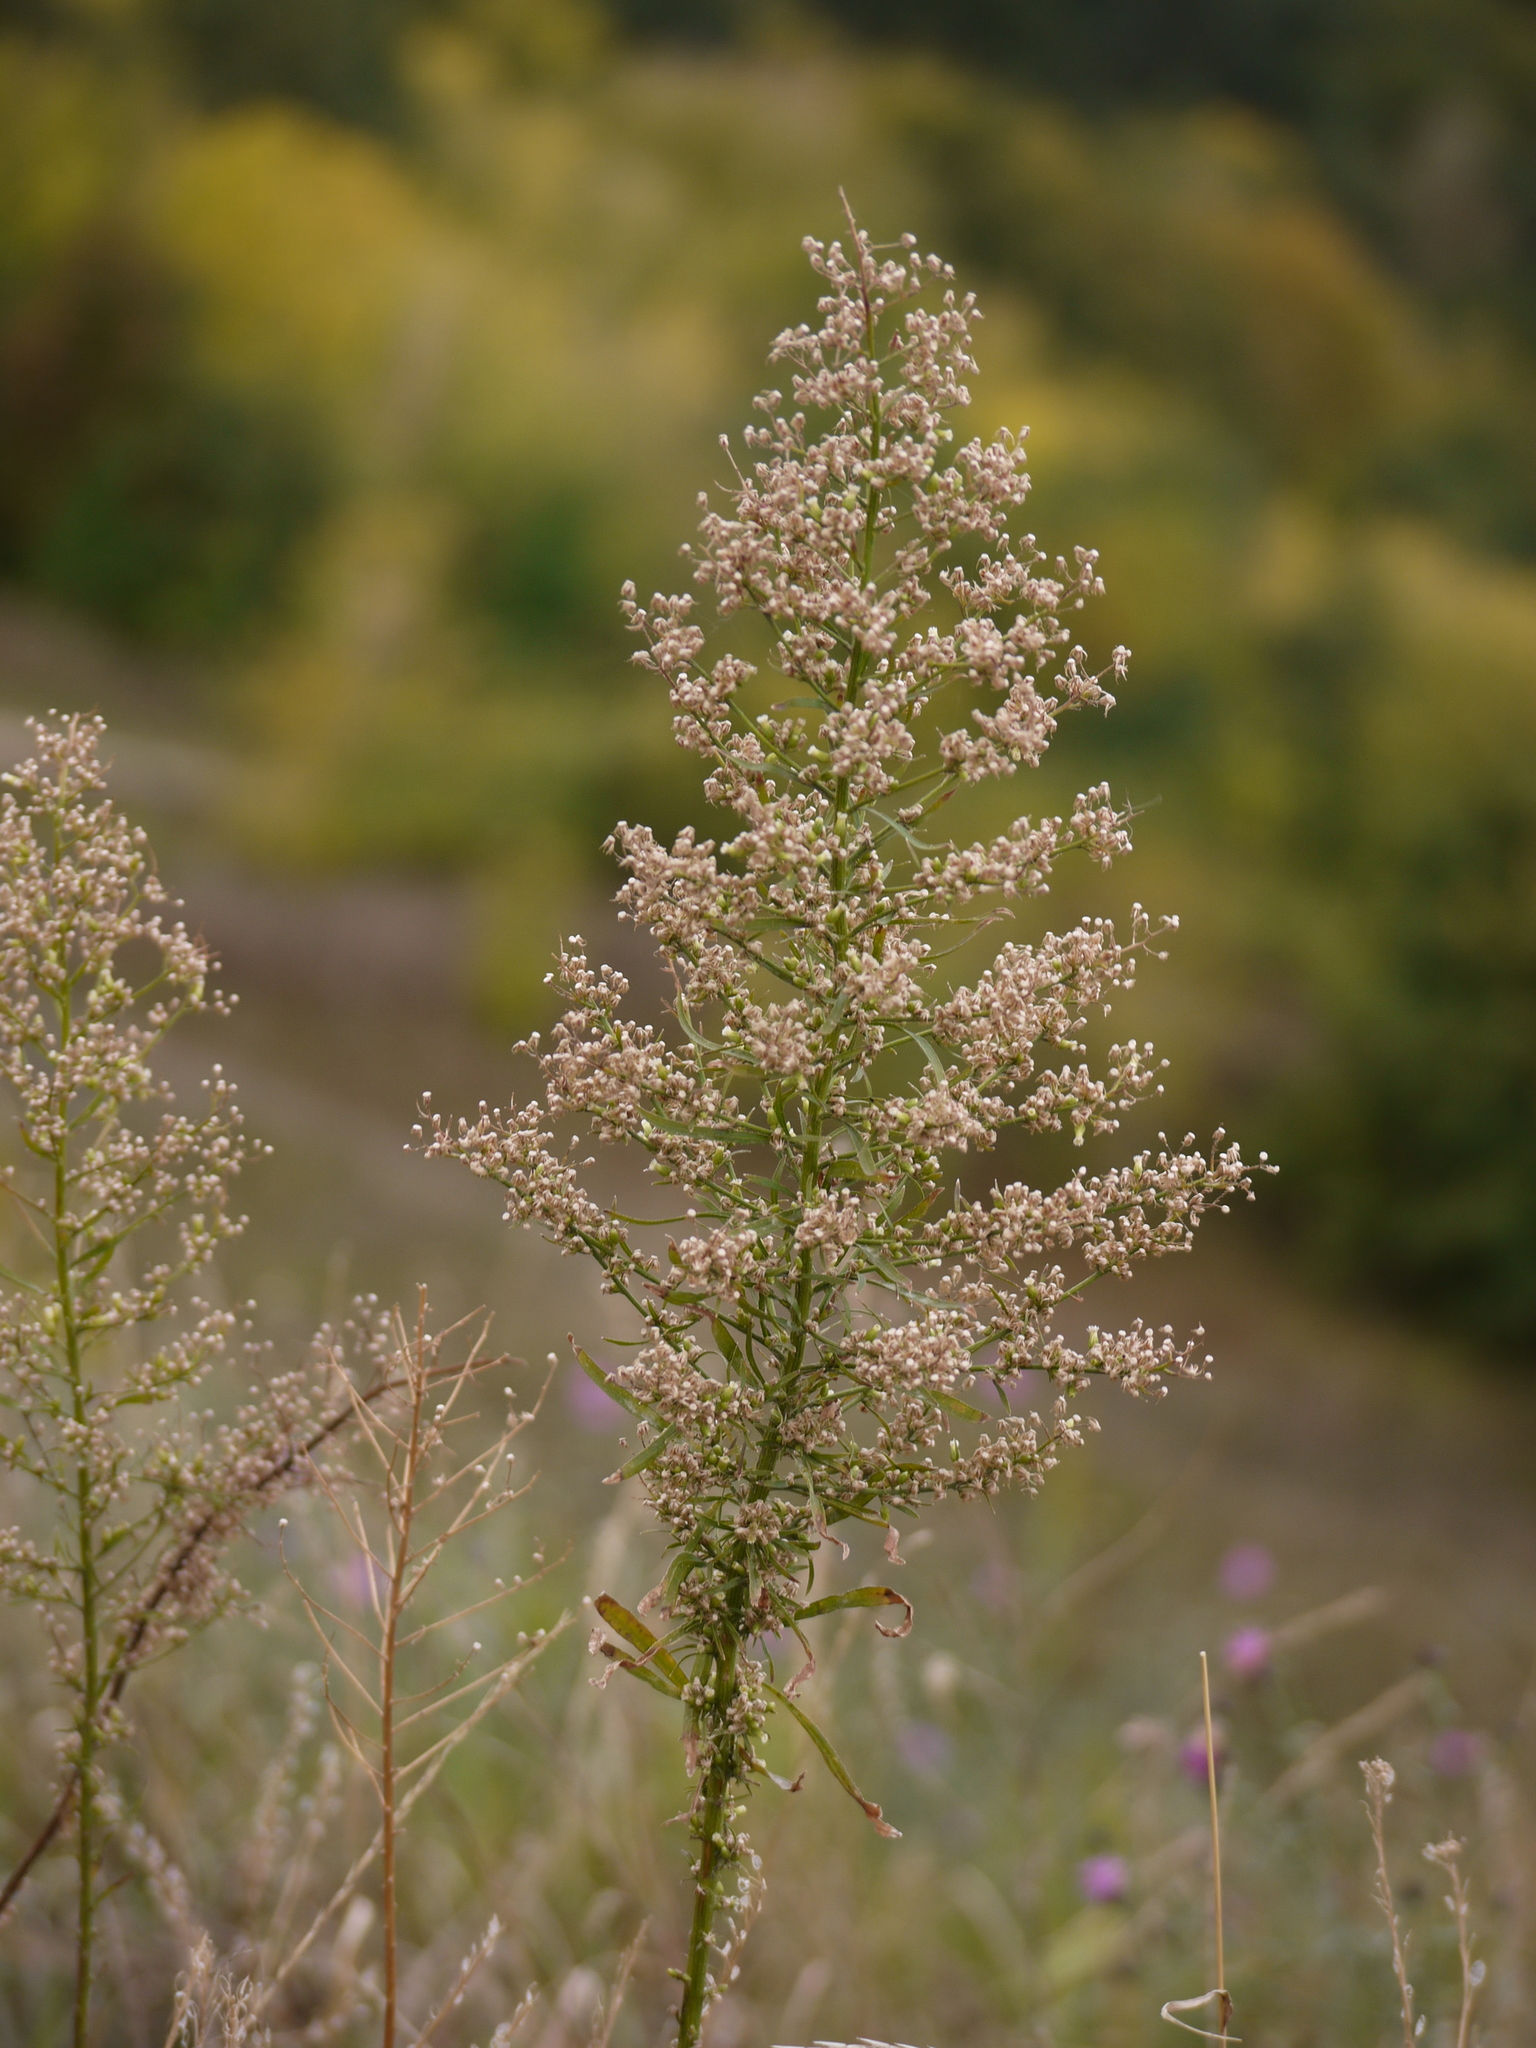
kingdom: Plantae
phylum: Tracheophyta
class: Magnoliopsida
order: Asterales
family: Asteraceae
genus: Erigeron
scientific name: Erigeron canadensis
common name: Canadian fleabane
